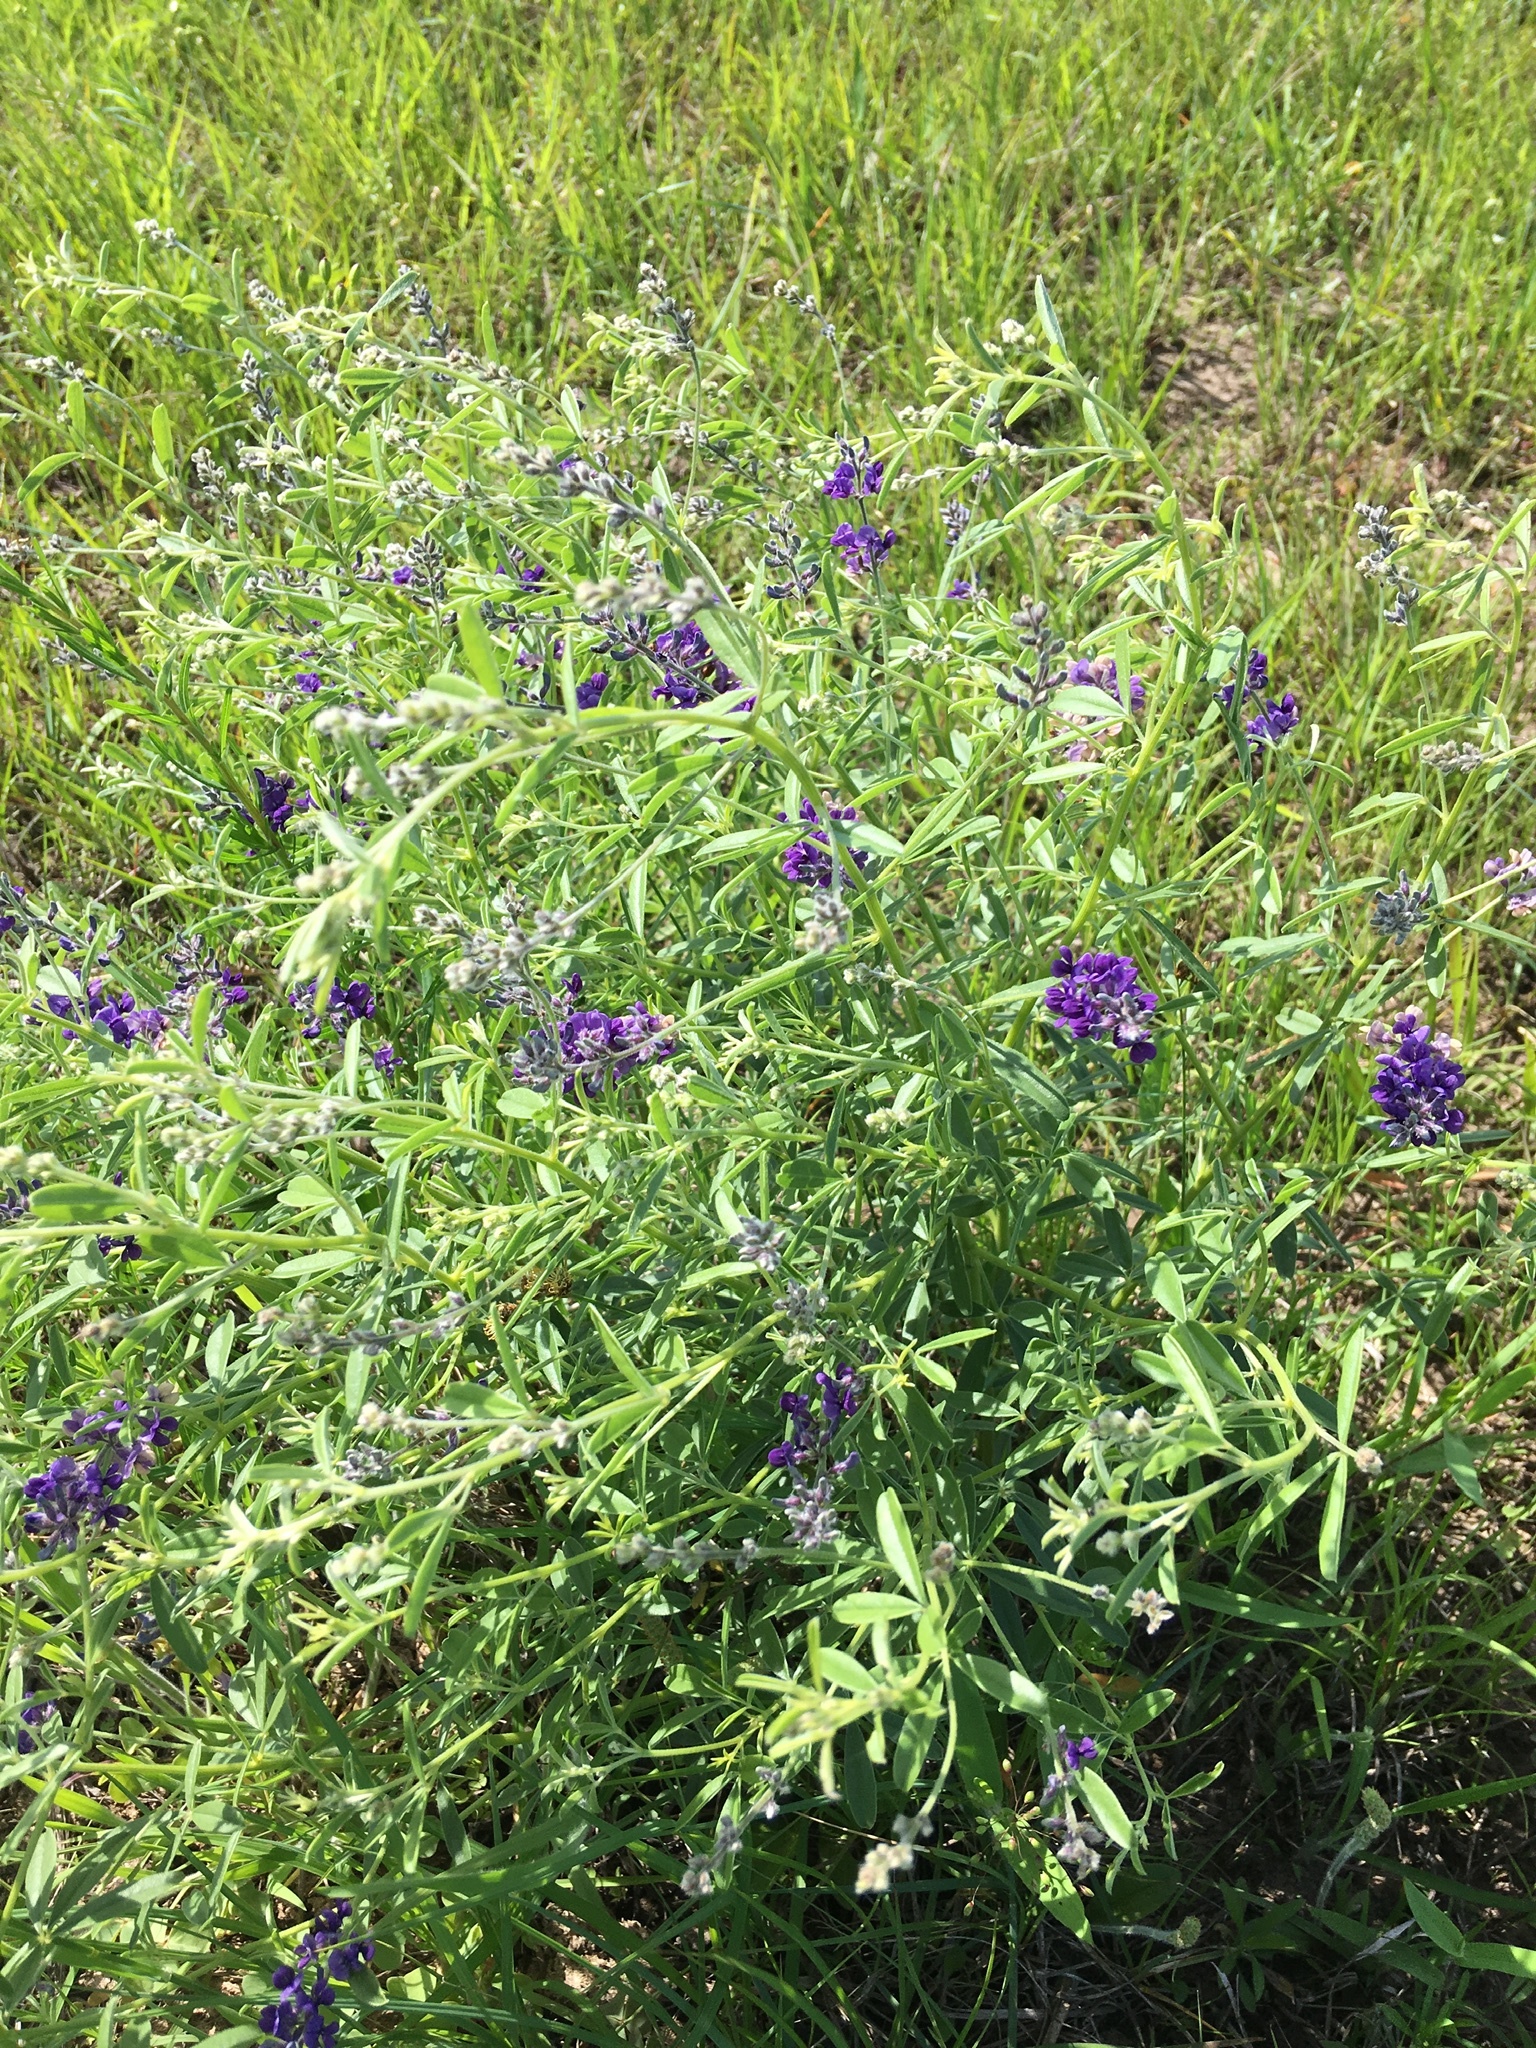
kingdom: Plantae
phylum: Tracheophyta
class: Magnoliopsida
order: Fabales
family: Fabaceae
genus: Pediomelum
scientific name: Pediomelum tenuiflorum
